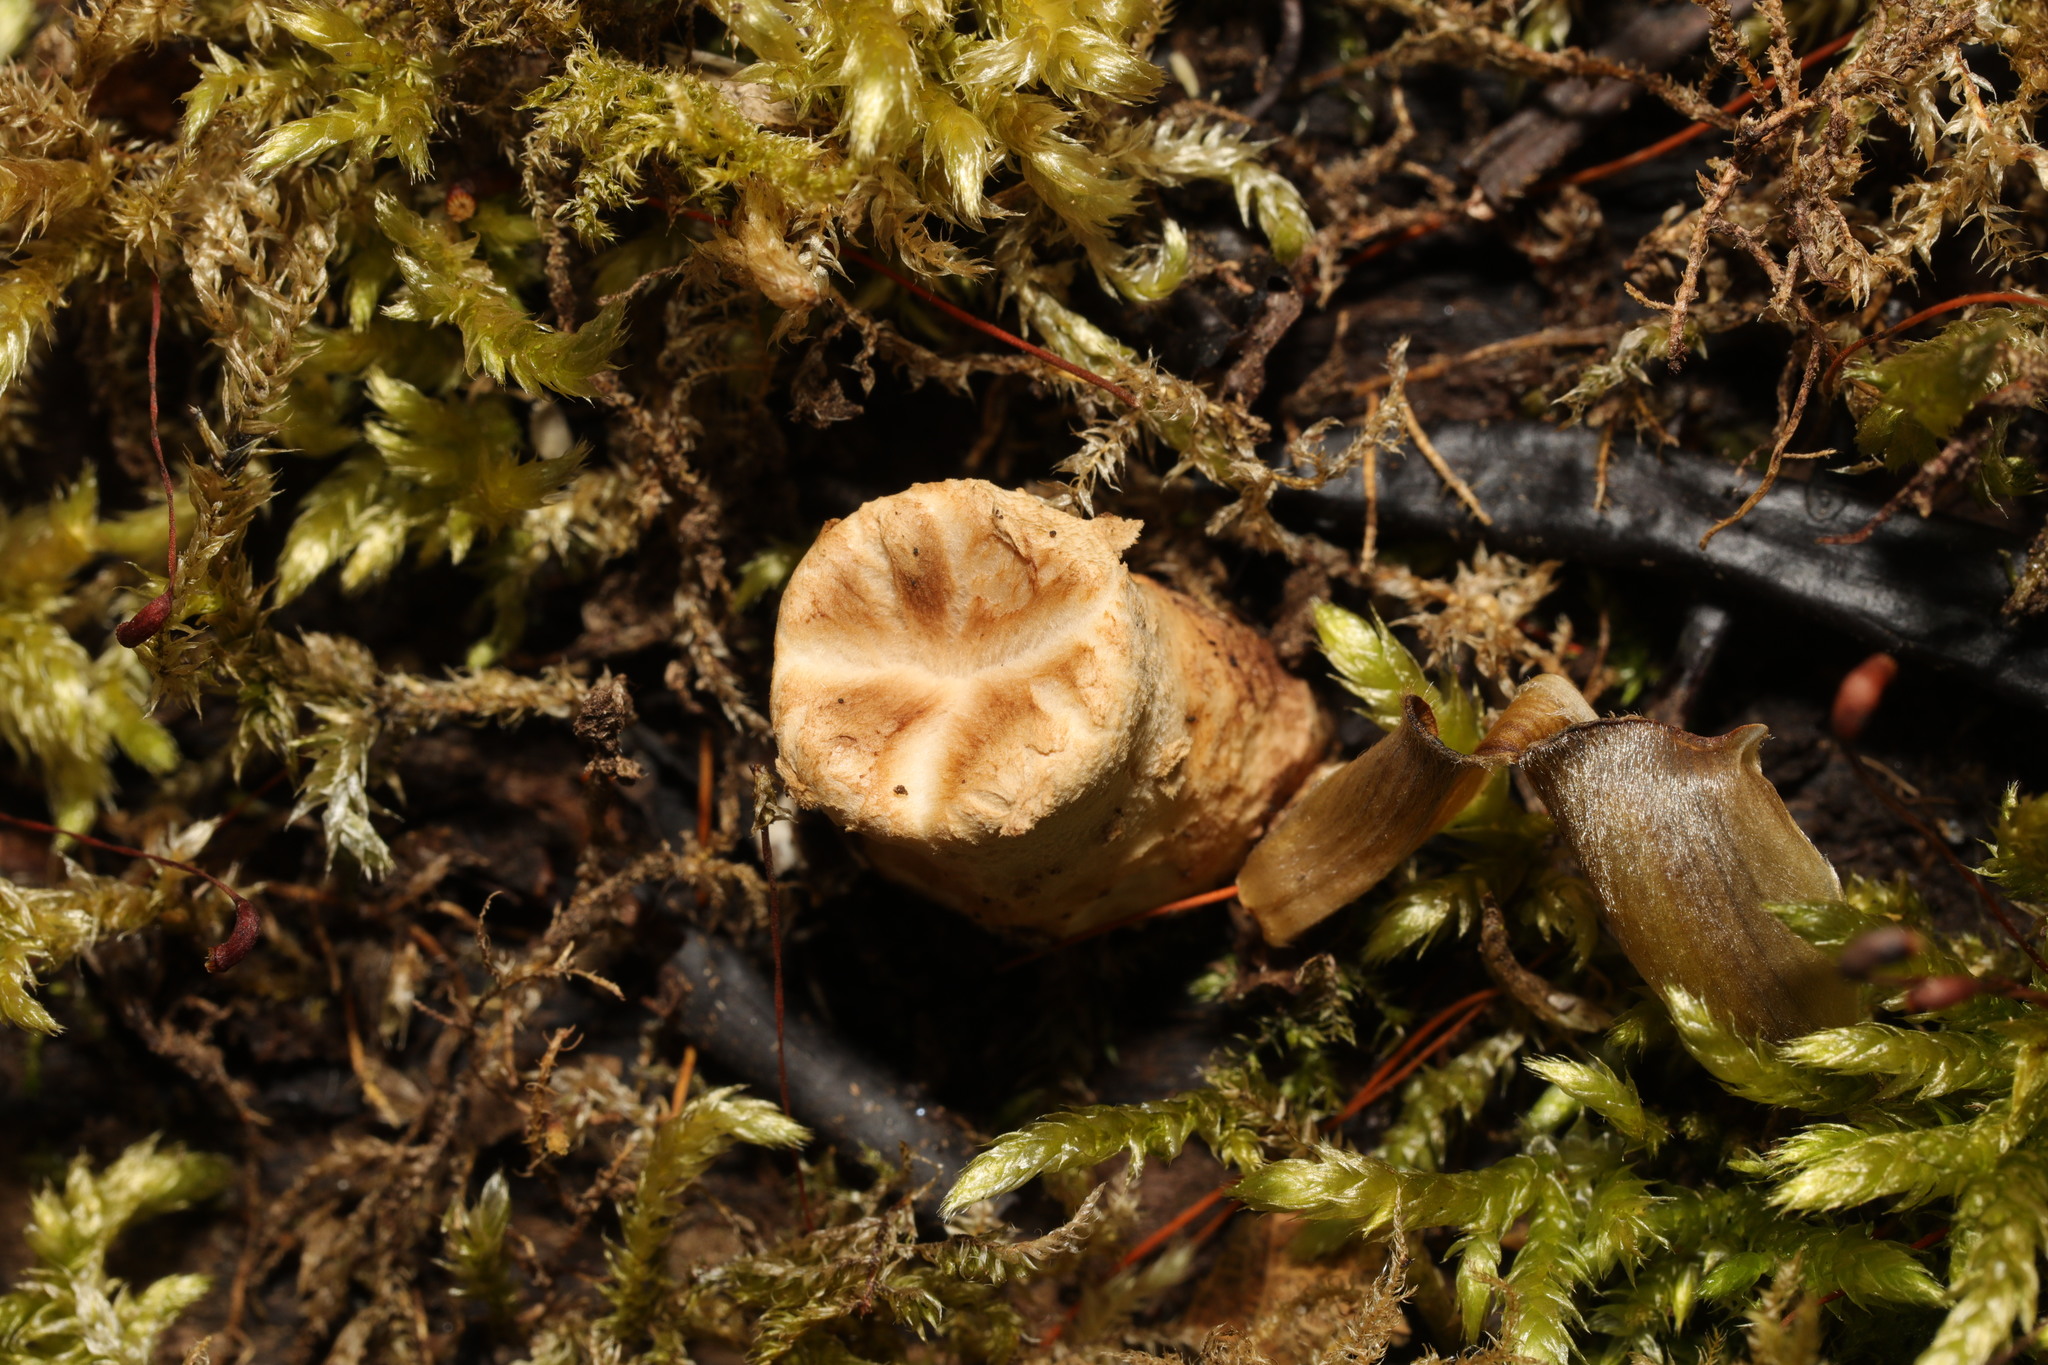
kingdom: Fungi
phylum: Basidiomycota
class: Agaricomycetes
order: Polyporales
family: Polyporaceae
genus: Cerioporus
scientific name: Cerioporus squamosus
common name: Dryad's saddle
